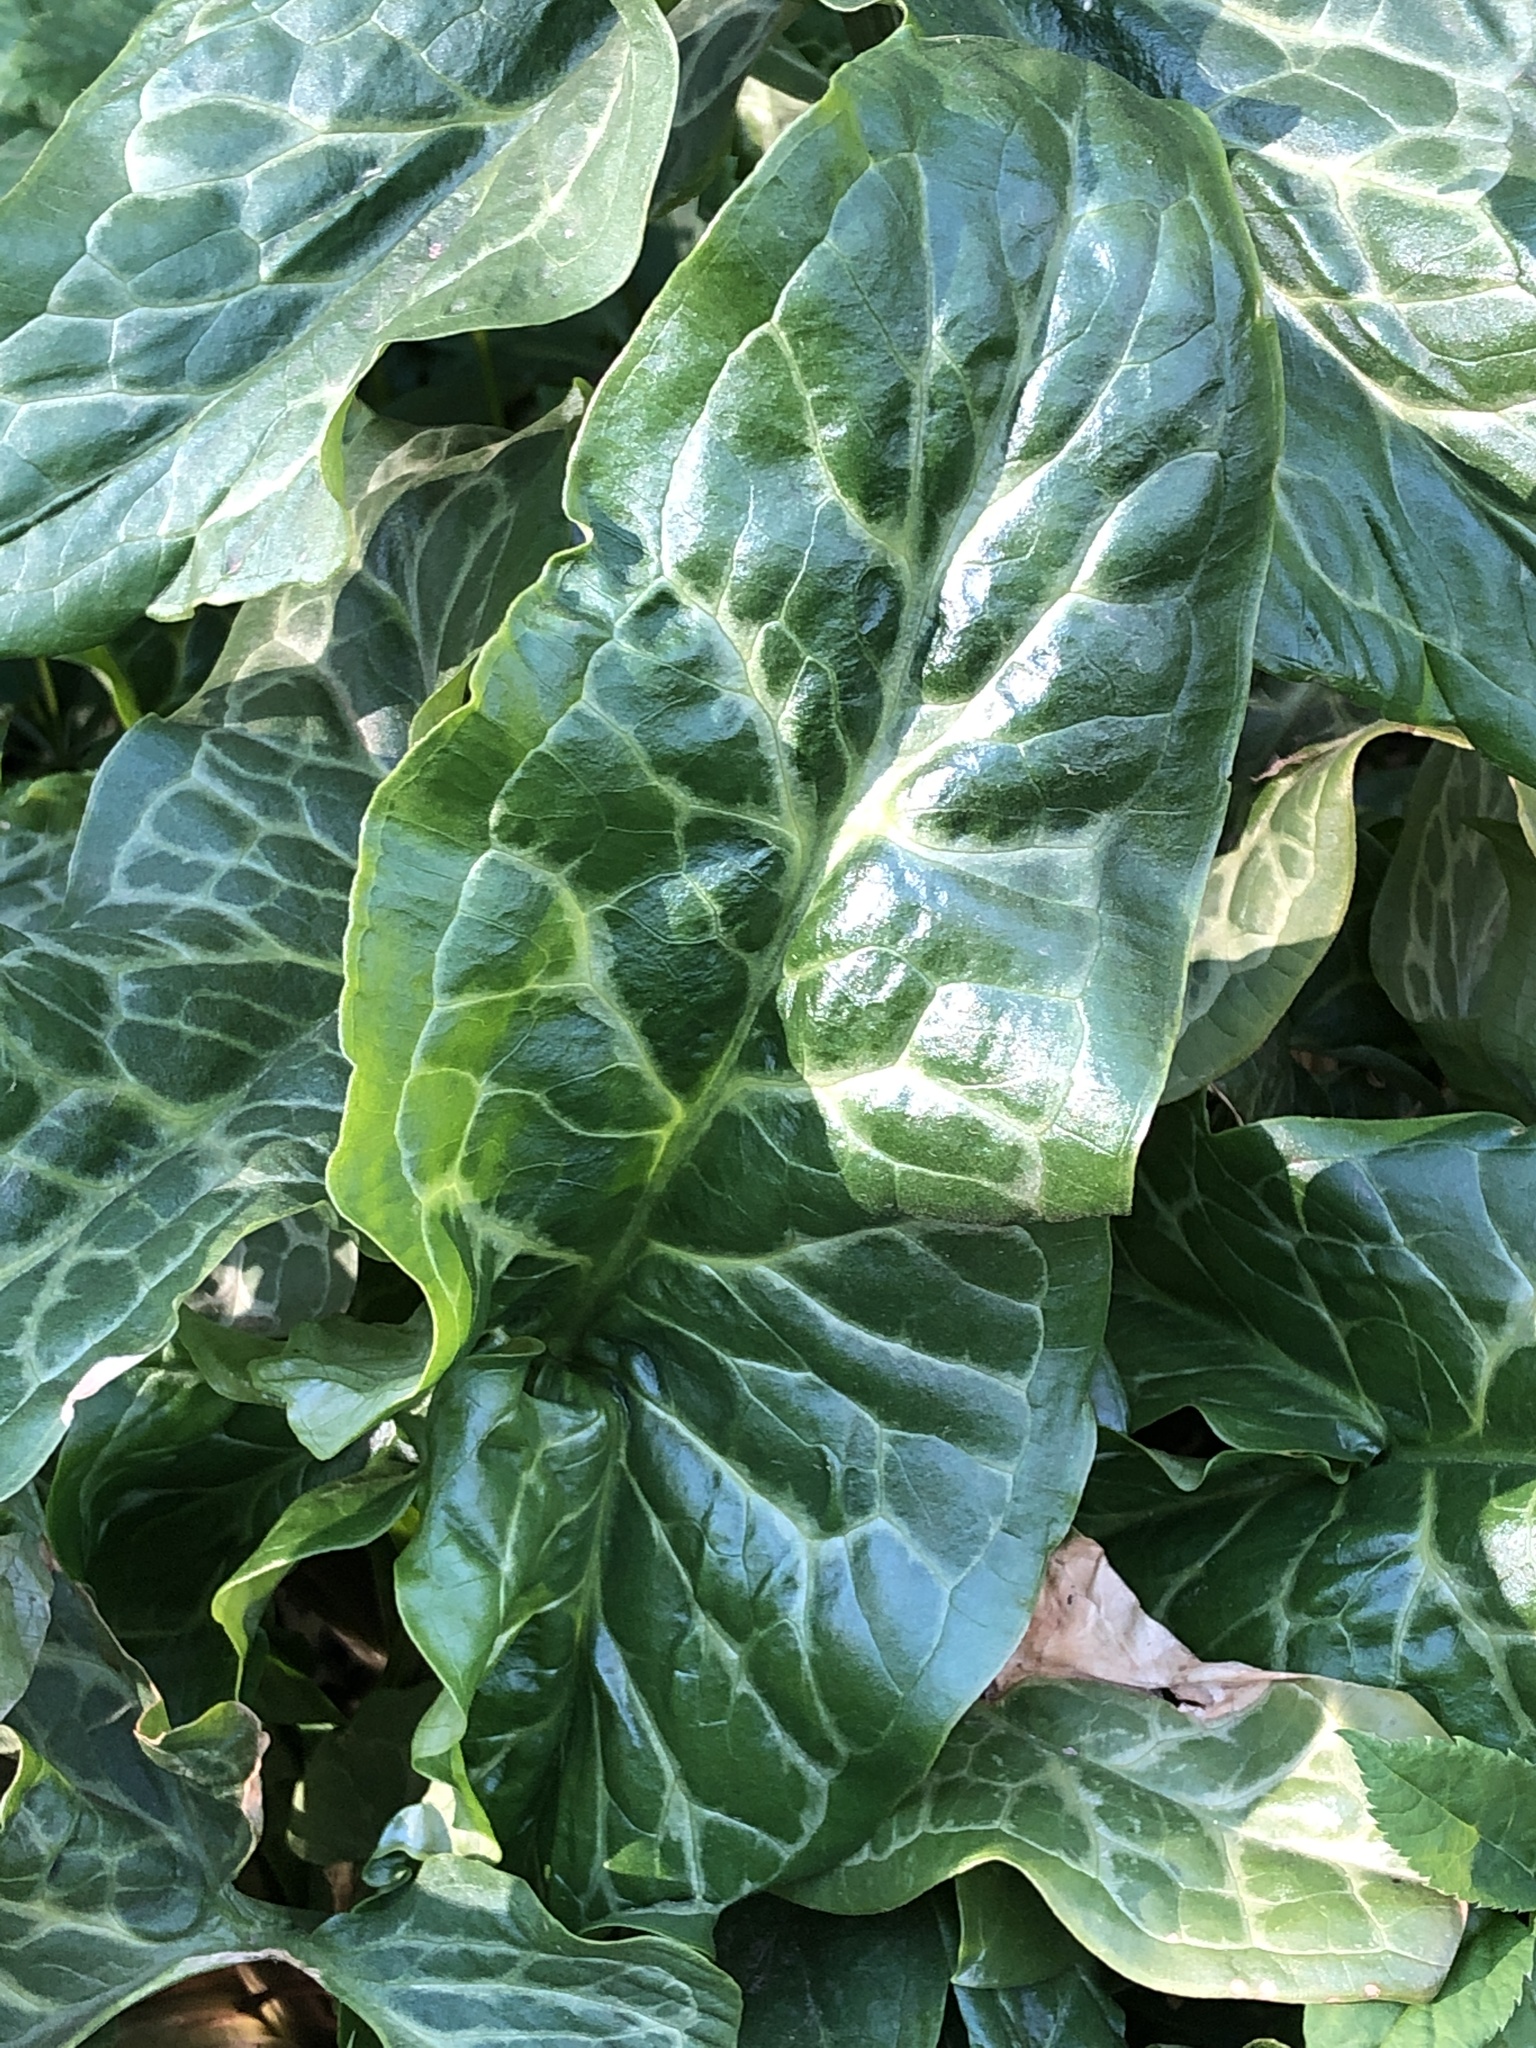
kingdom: Plantae
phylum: Tracheophyta
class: Liliopsida
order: Alismatales
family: Araceae
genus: Arum
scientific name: Arum italicum
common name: Italian lords-and-ladies
